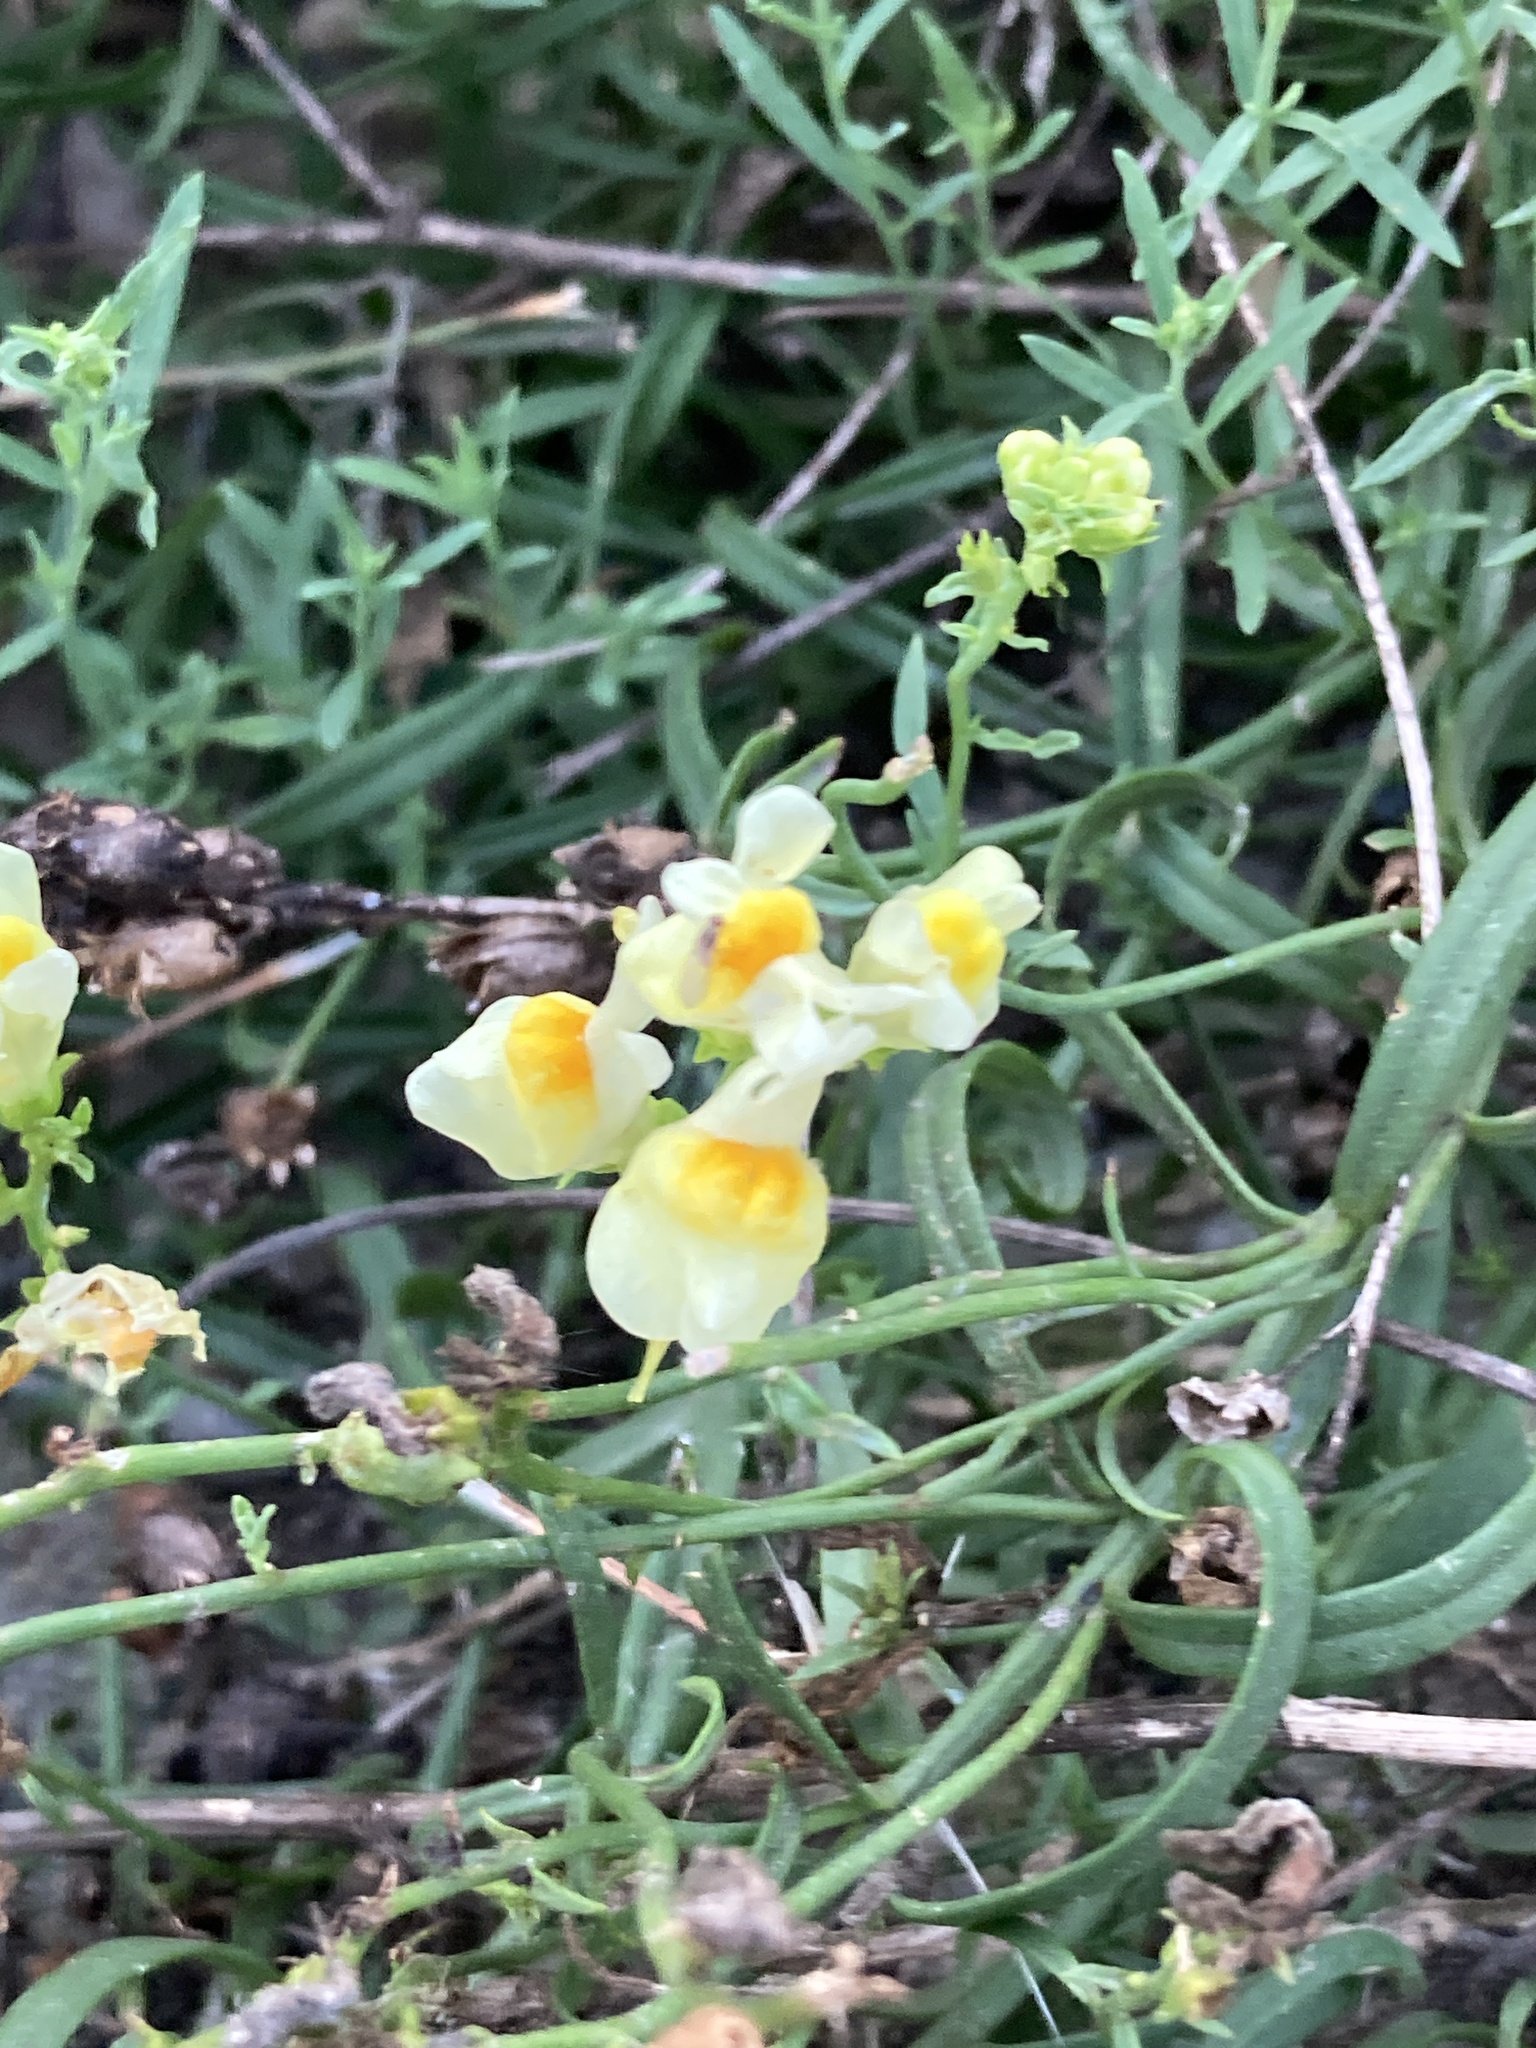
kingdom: Plantae
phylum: Tracheophyta
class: Magnoliopsida
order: Lamiales
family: Plantaginaceae
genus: Linaria
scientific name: Linaria vulgaris
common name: Butter and eggs
